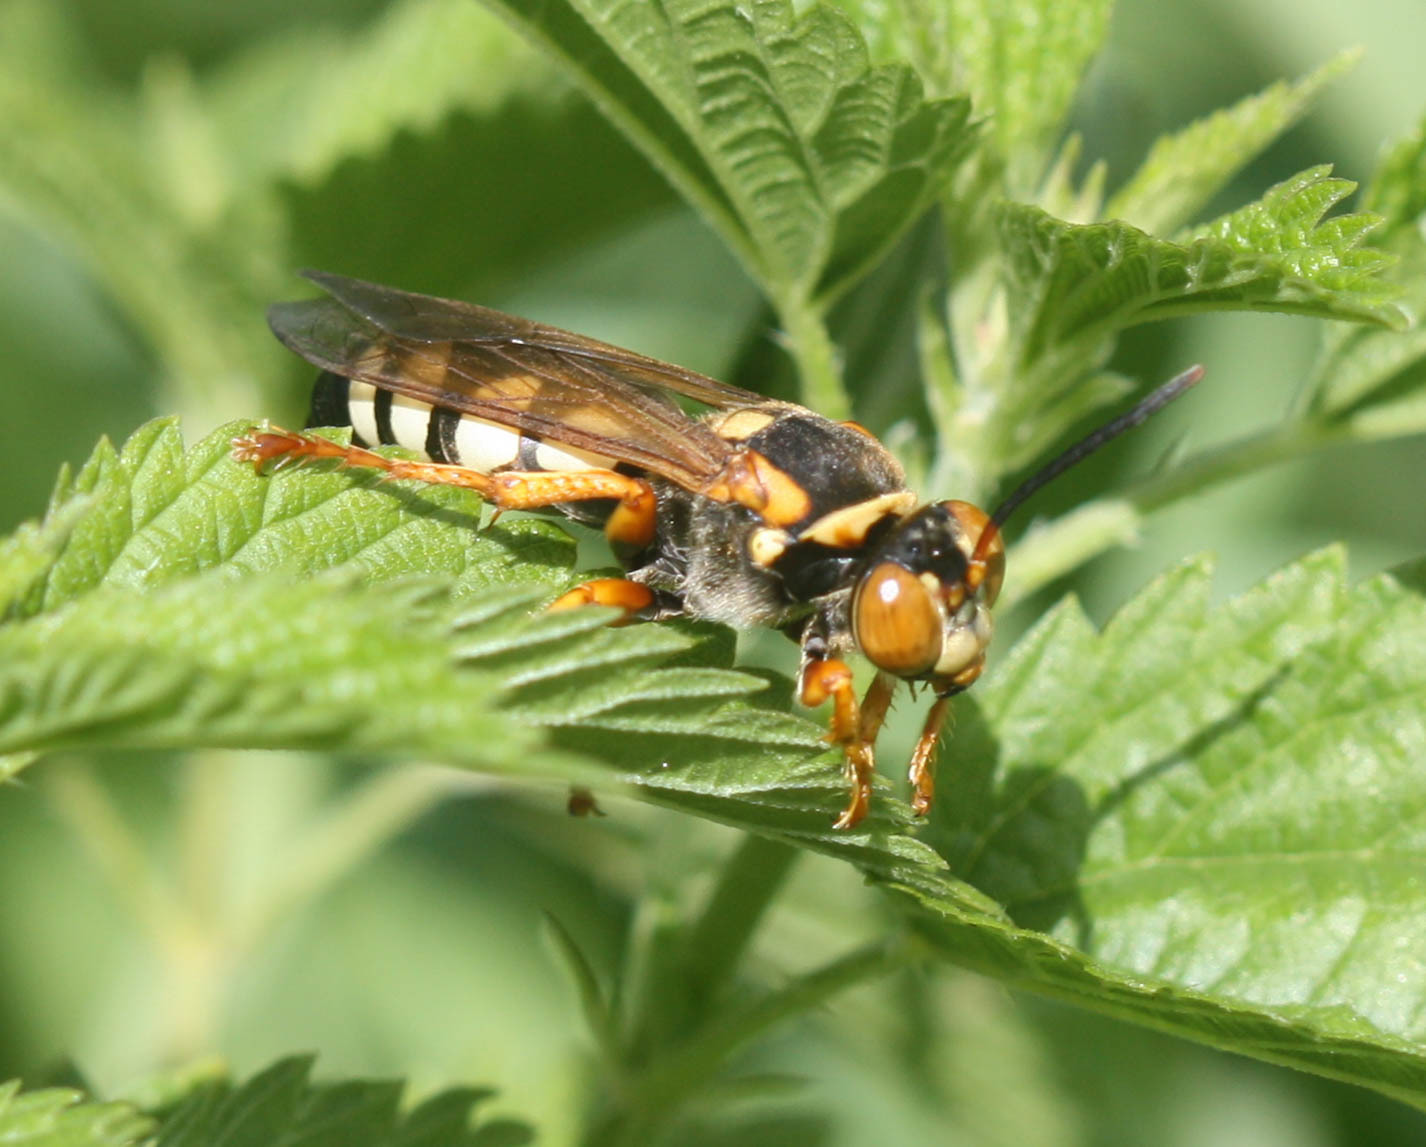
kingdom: Animalia
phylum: Arthropoda
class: Insecta
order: Hymenoptera
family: Crabronidae
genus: Stizus
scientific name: Stizus brevipennis
